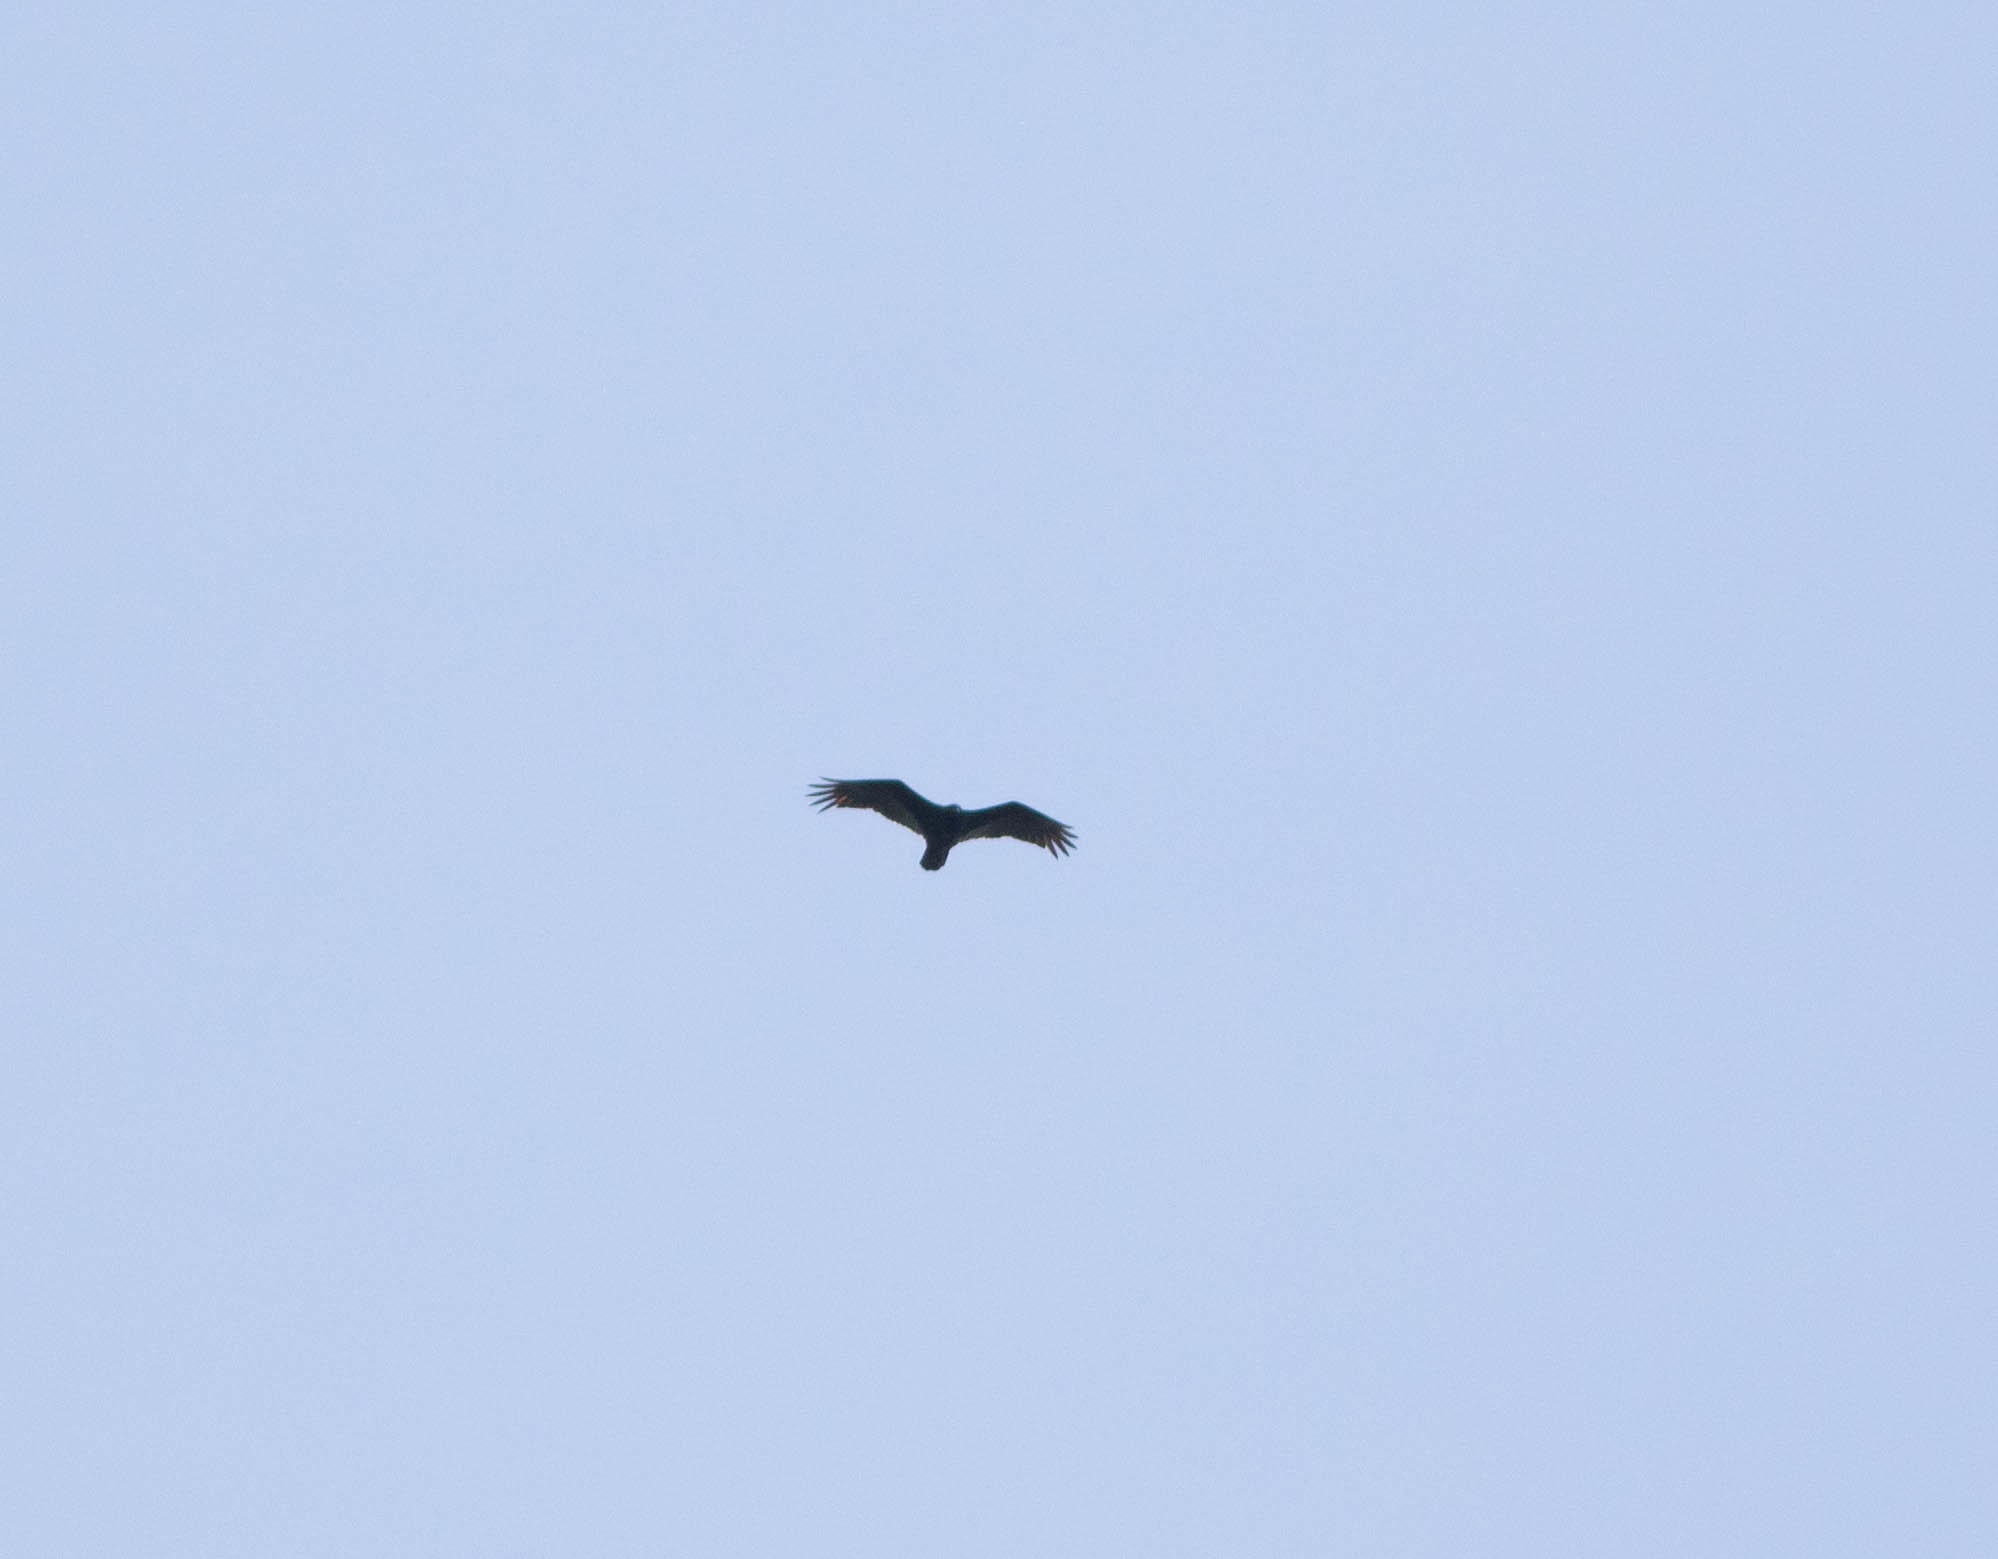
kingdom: Animalia
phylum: Chordata
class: Aves
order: Accipitriformes
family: Cathartidae
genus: Cathartes
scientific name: Cathartes aura
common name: Turkey vulture
